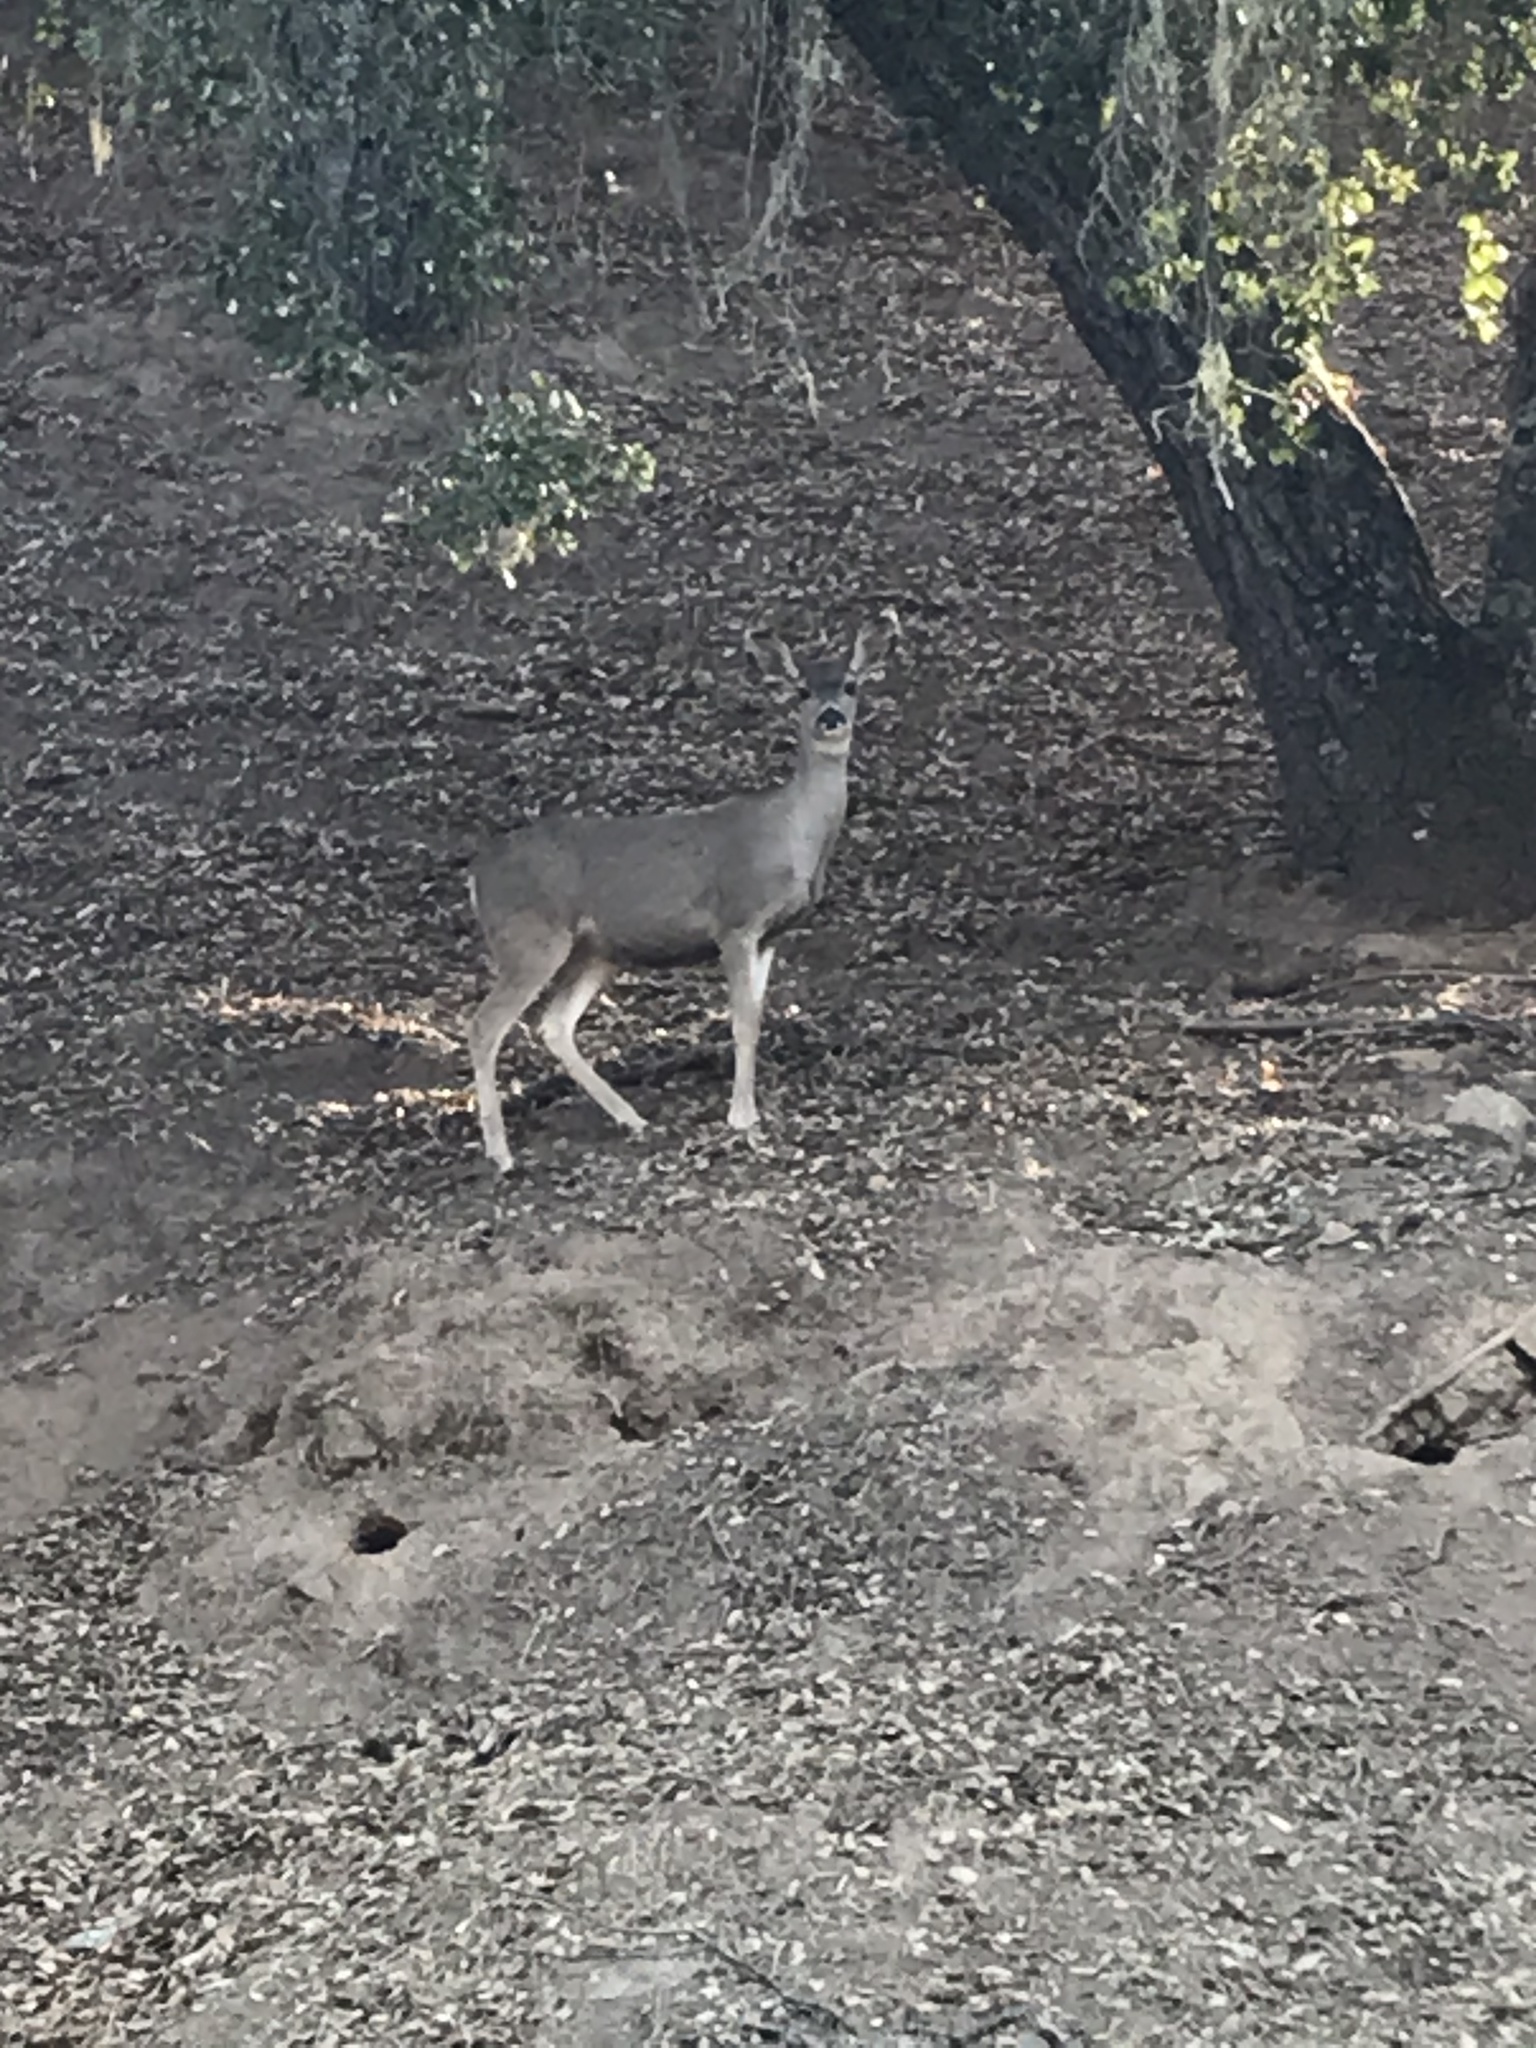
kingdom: Animalia
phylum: Chordata
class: Mammalia
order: Artiodactyla
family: Cervidae
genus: Odocoileus
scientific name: Odocoileus hemionus
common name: Mule deer
